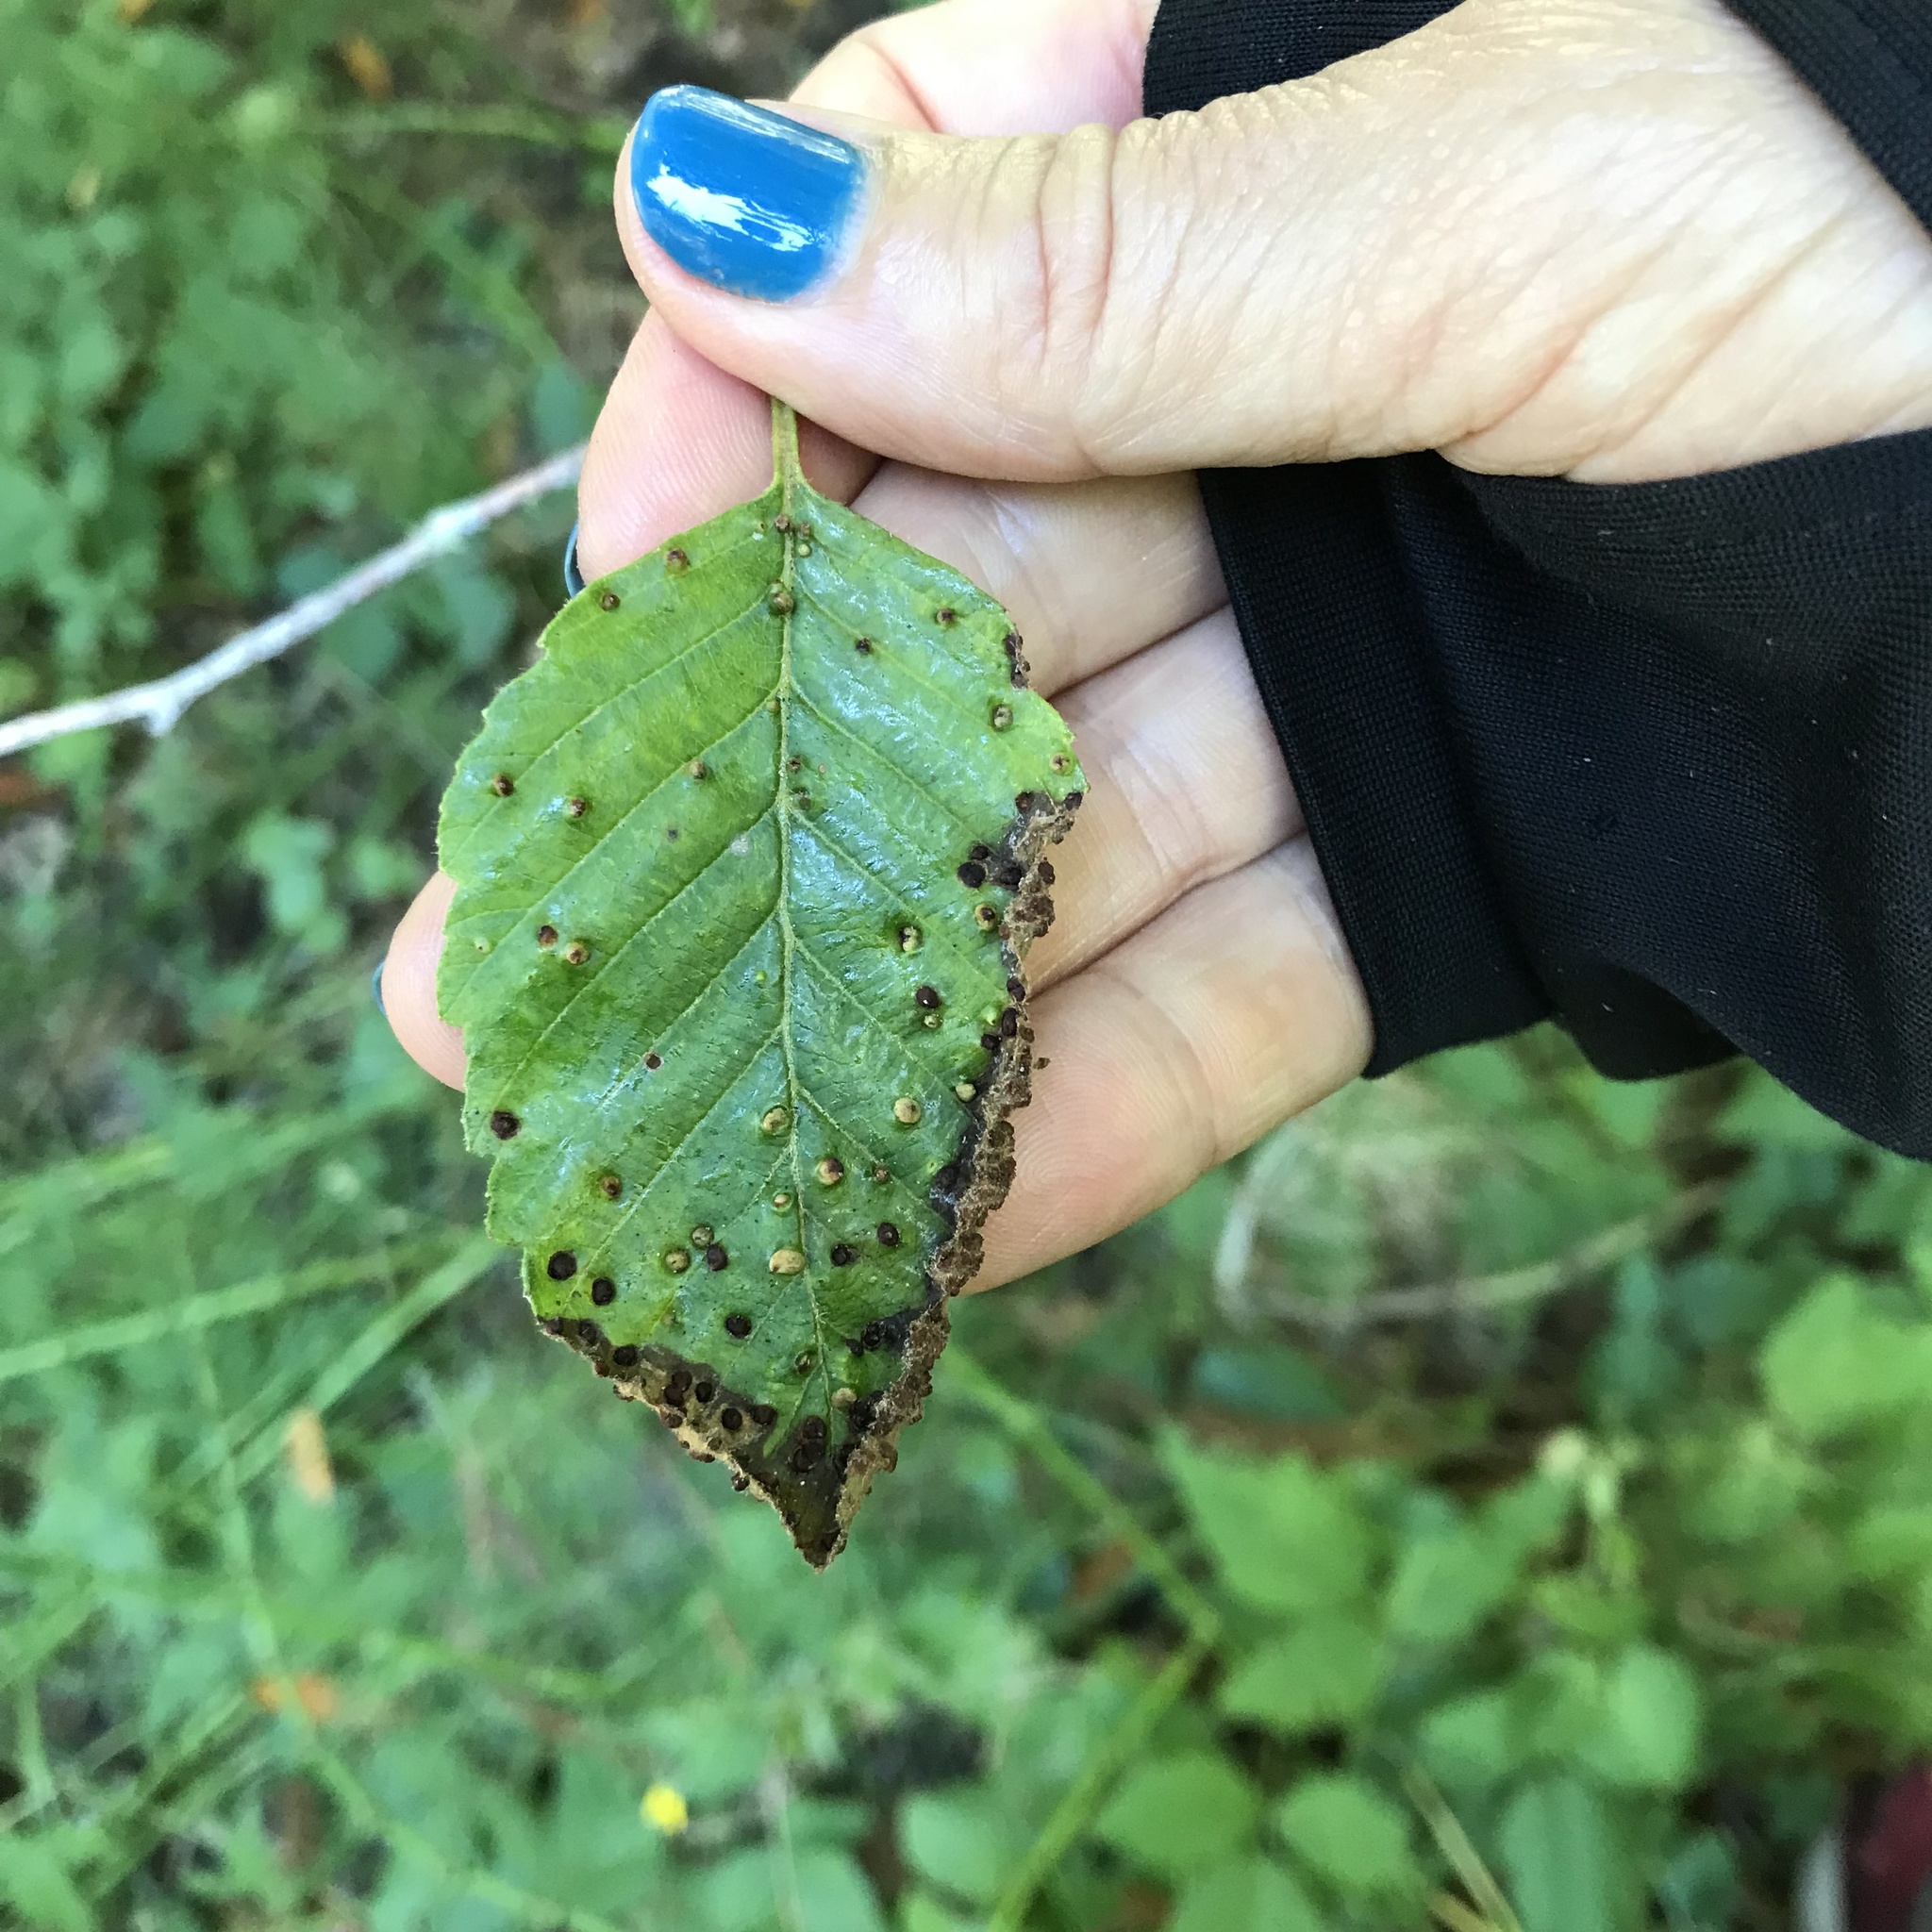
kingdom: Animalia
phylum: Arthropoda
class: Arachnida
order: Trombidiformes
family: Eriophyidae
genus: Eriophyes
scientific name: Eriophyes laevis
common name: Alder leaf gall mite
